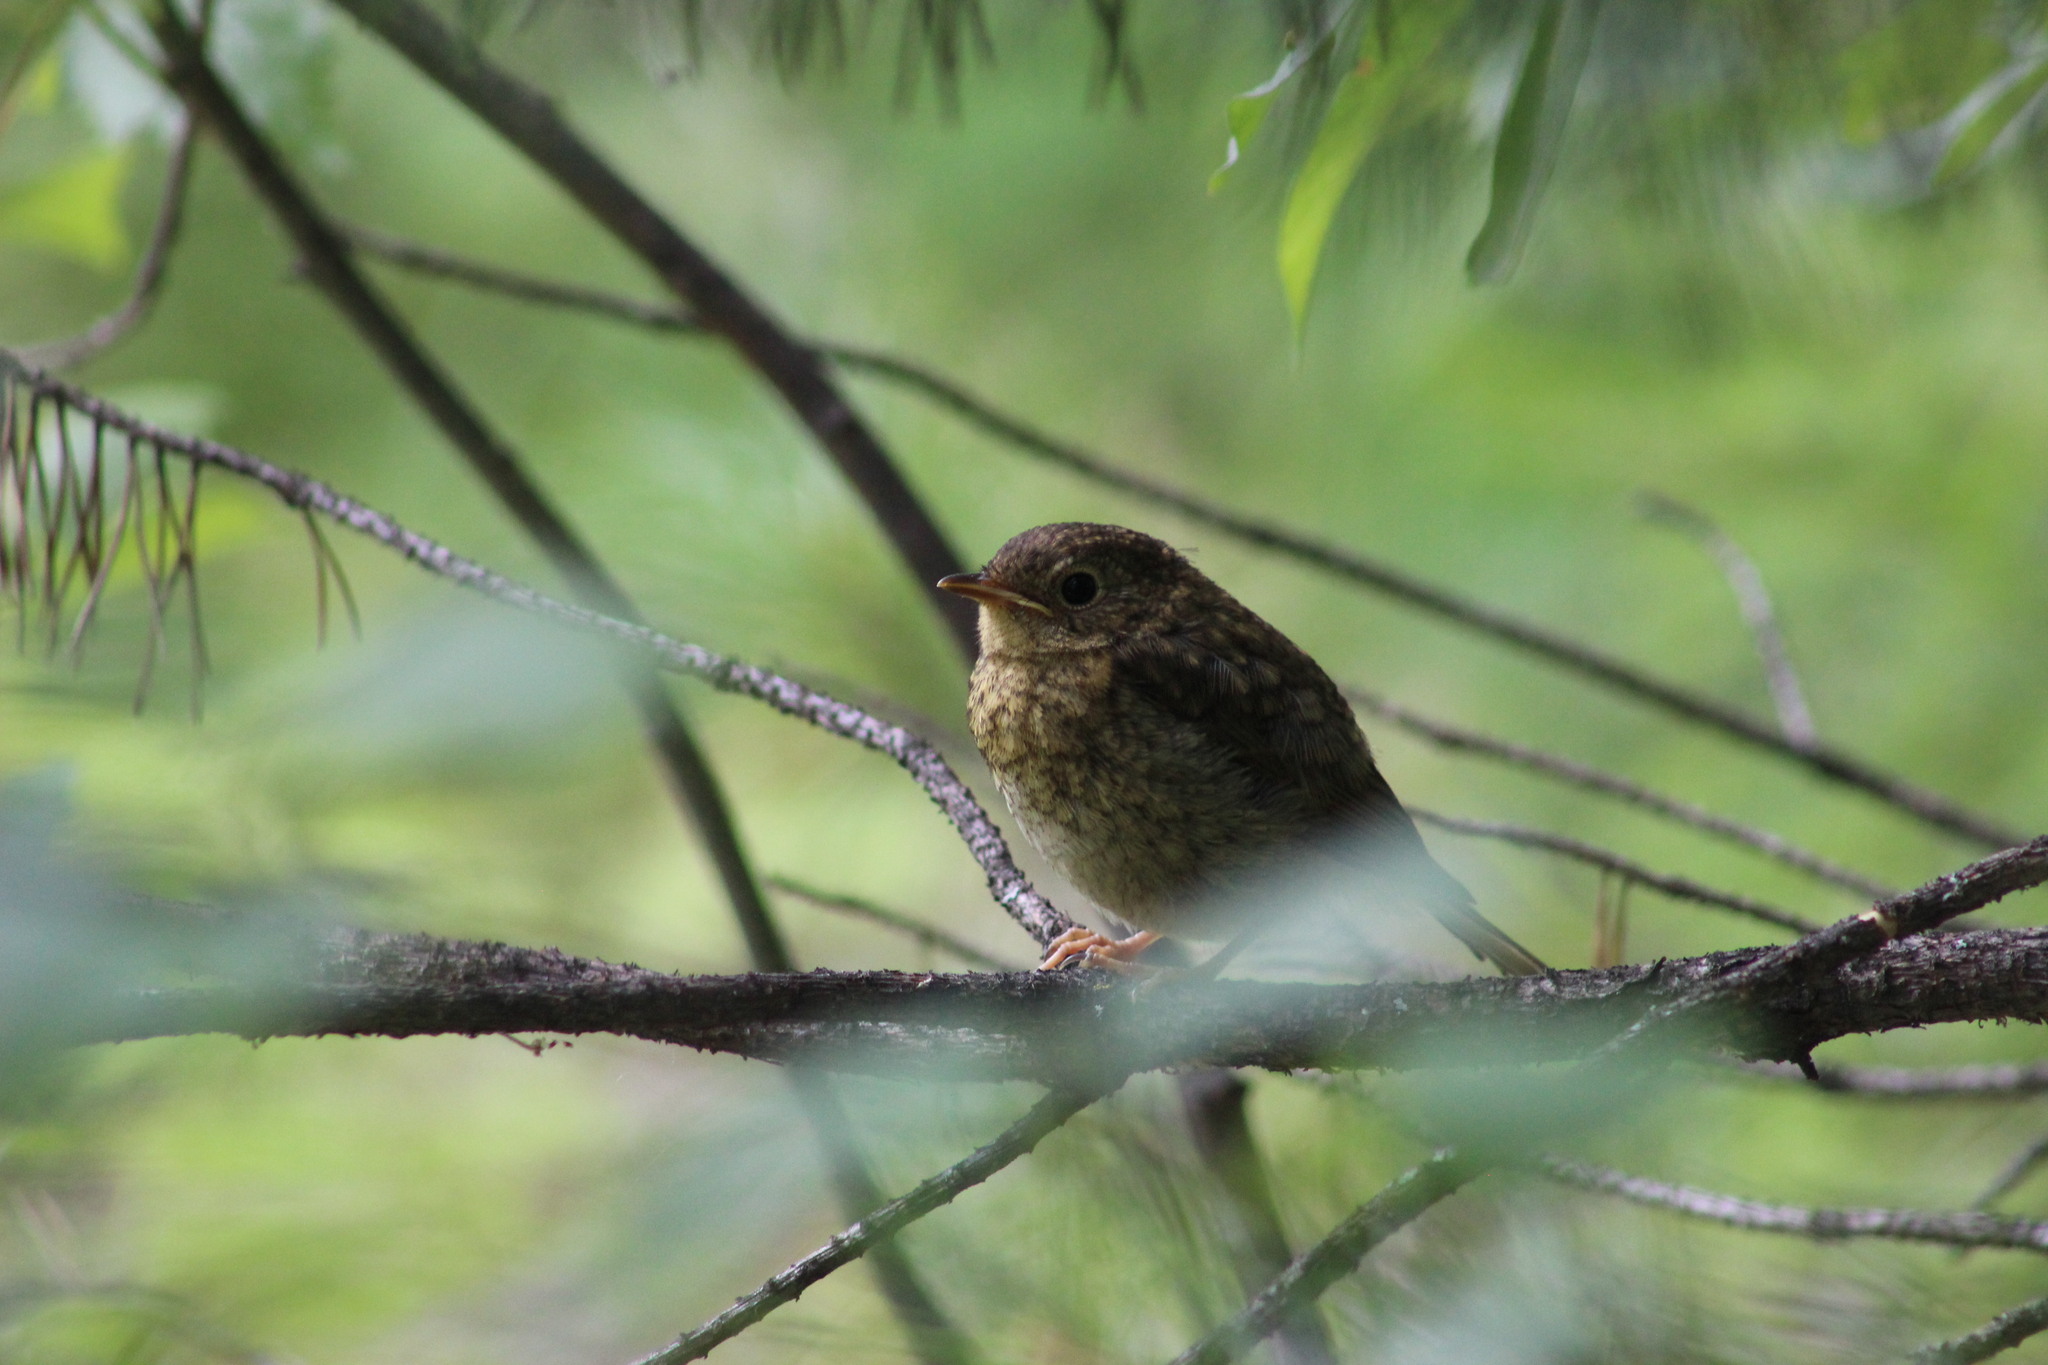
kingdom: Animalia
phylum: Chordata
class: Aves
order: Passeriformes
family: Muscicapidae
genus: Erithacus
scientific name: Erithacus rubecula
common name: European robin
